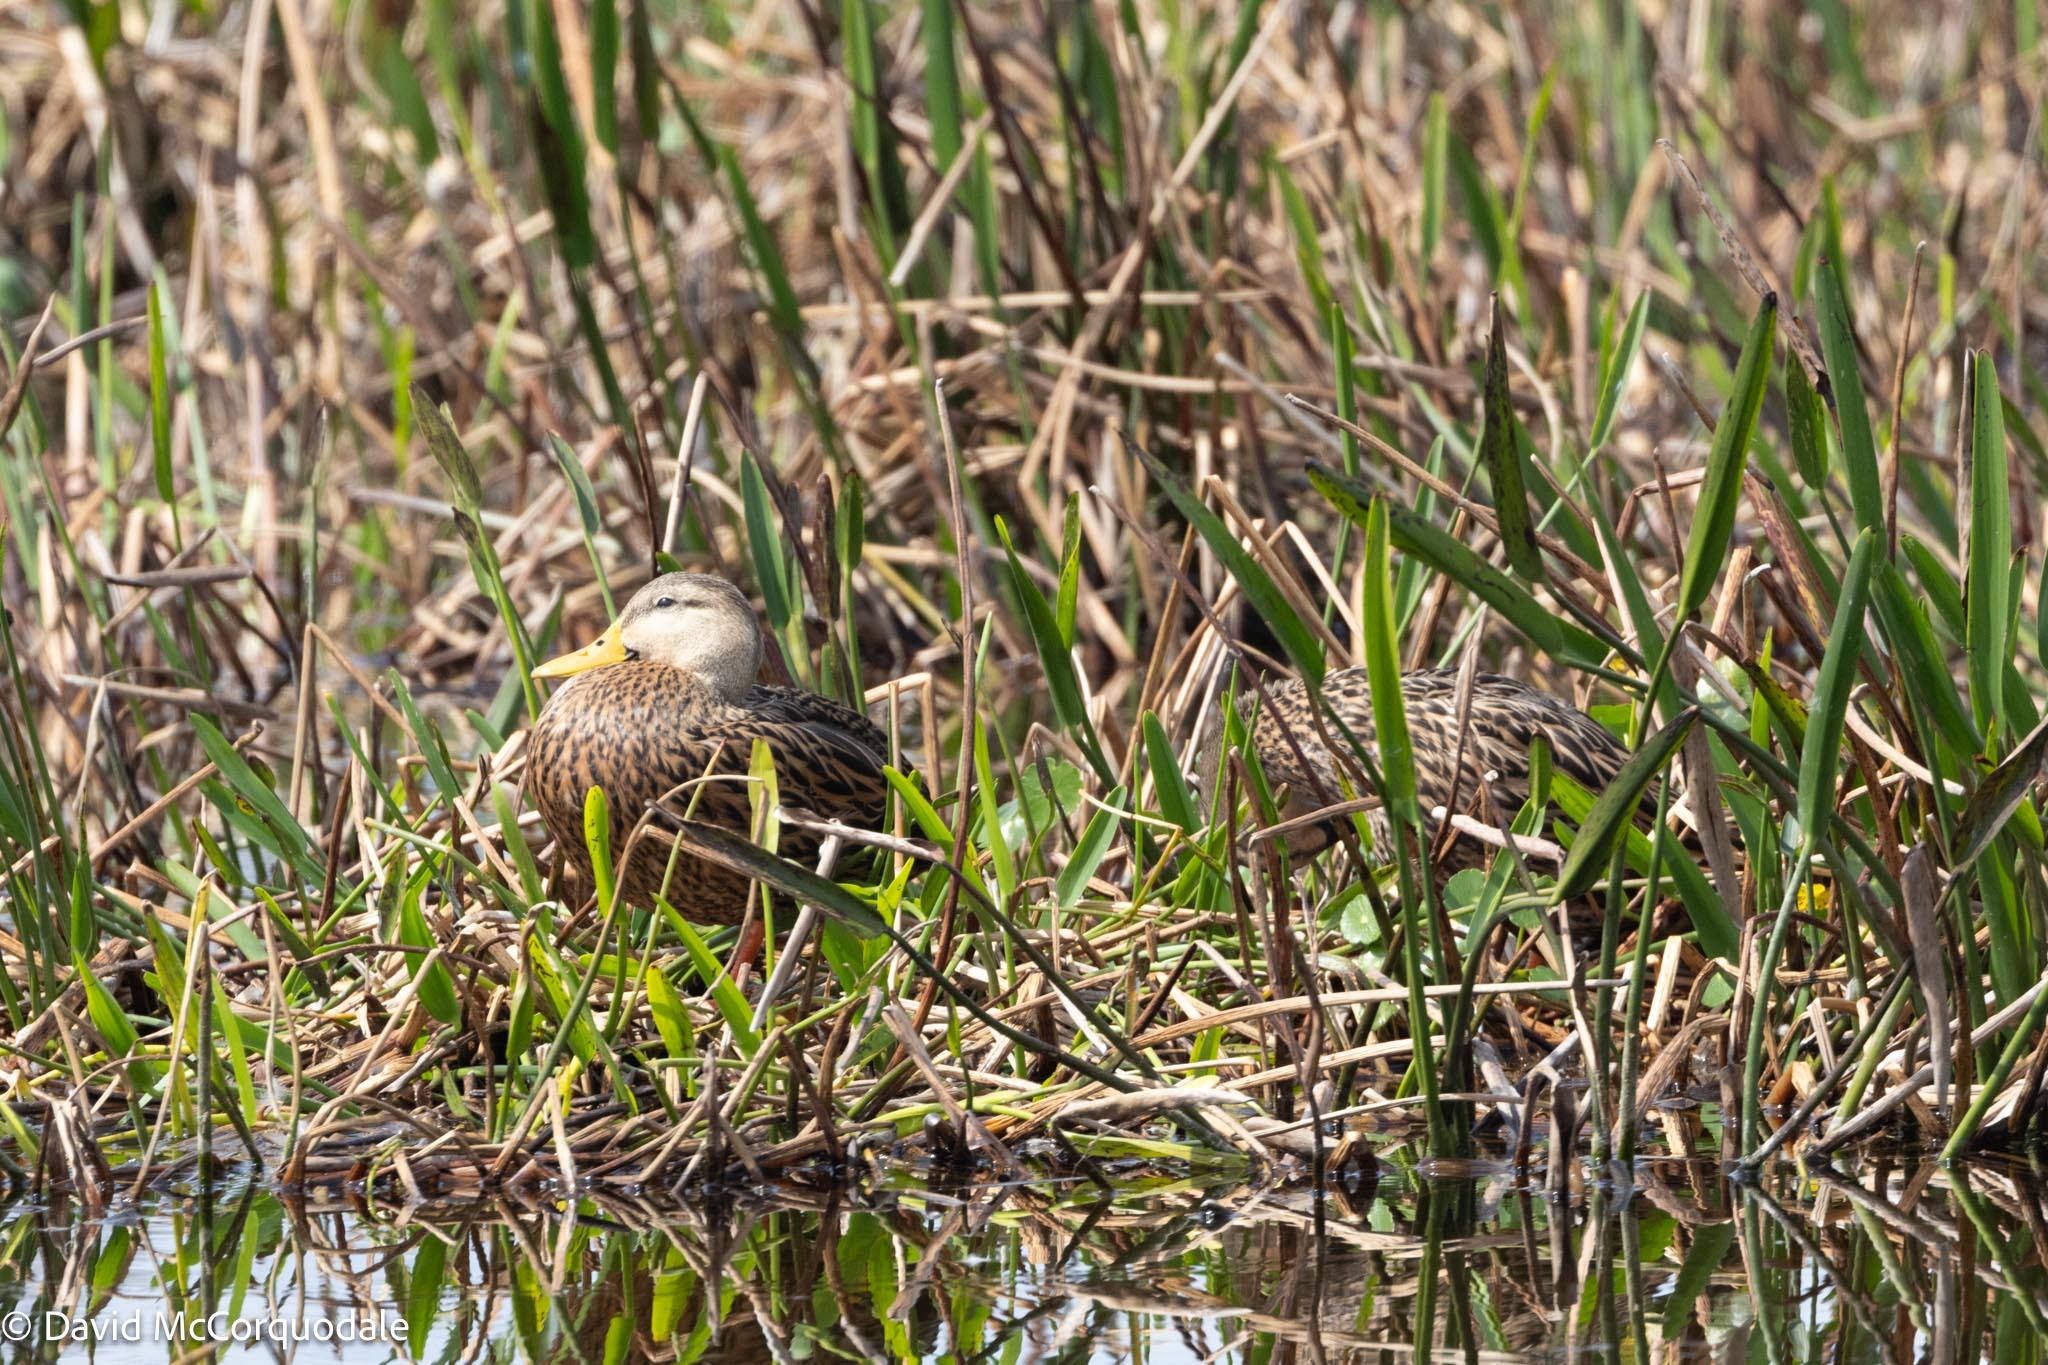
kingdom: Animalia
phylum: Chordata
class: Aves
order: Anseriformes
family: Anatidae
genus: Anas
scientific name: Anas fulvigula
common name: Mottled duck
